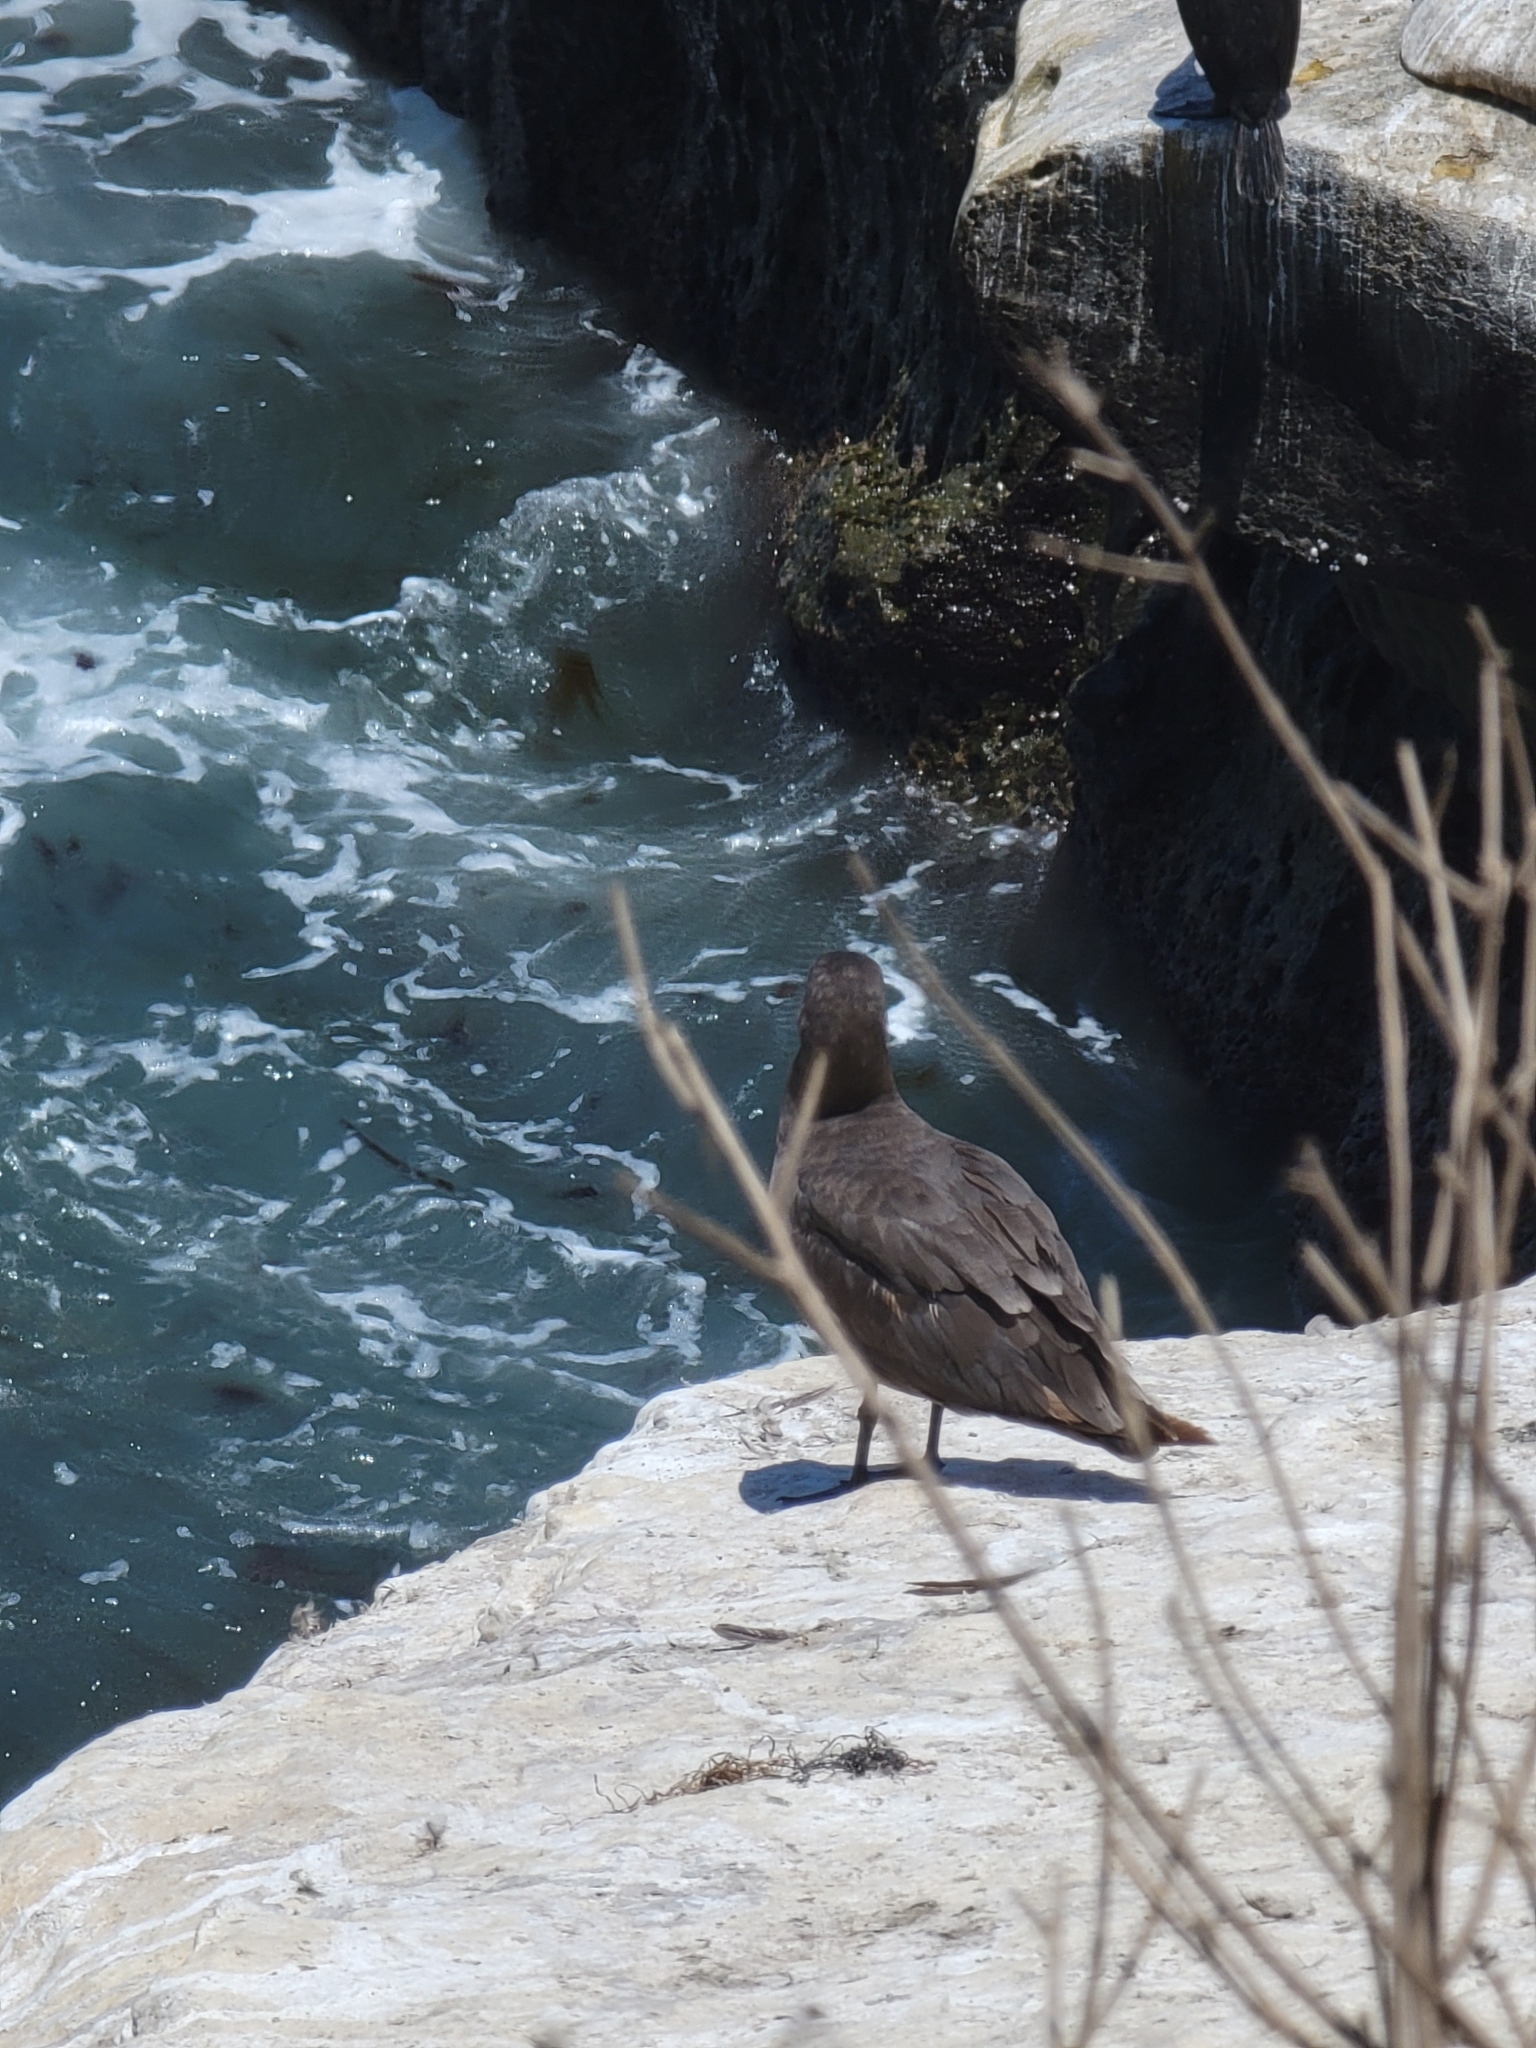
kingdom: Animalia
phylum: Chordata
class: Aves
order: Charadriiformes
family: Laridae
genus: Larus
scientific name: Larus heermanni
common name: Heermann's gull
